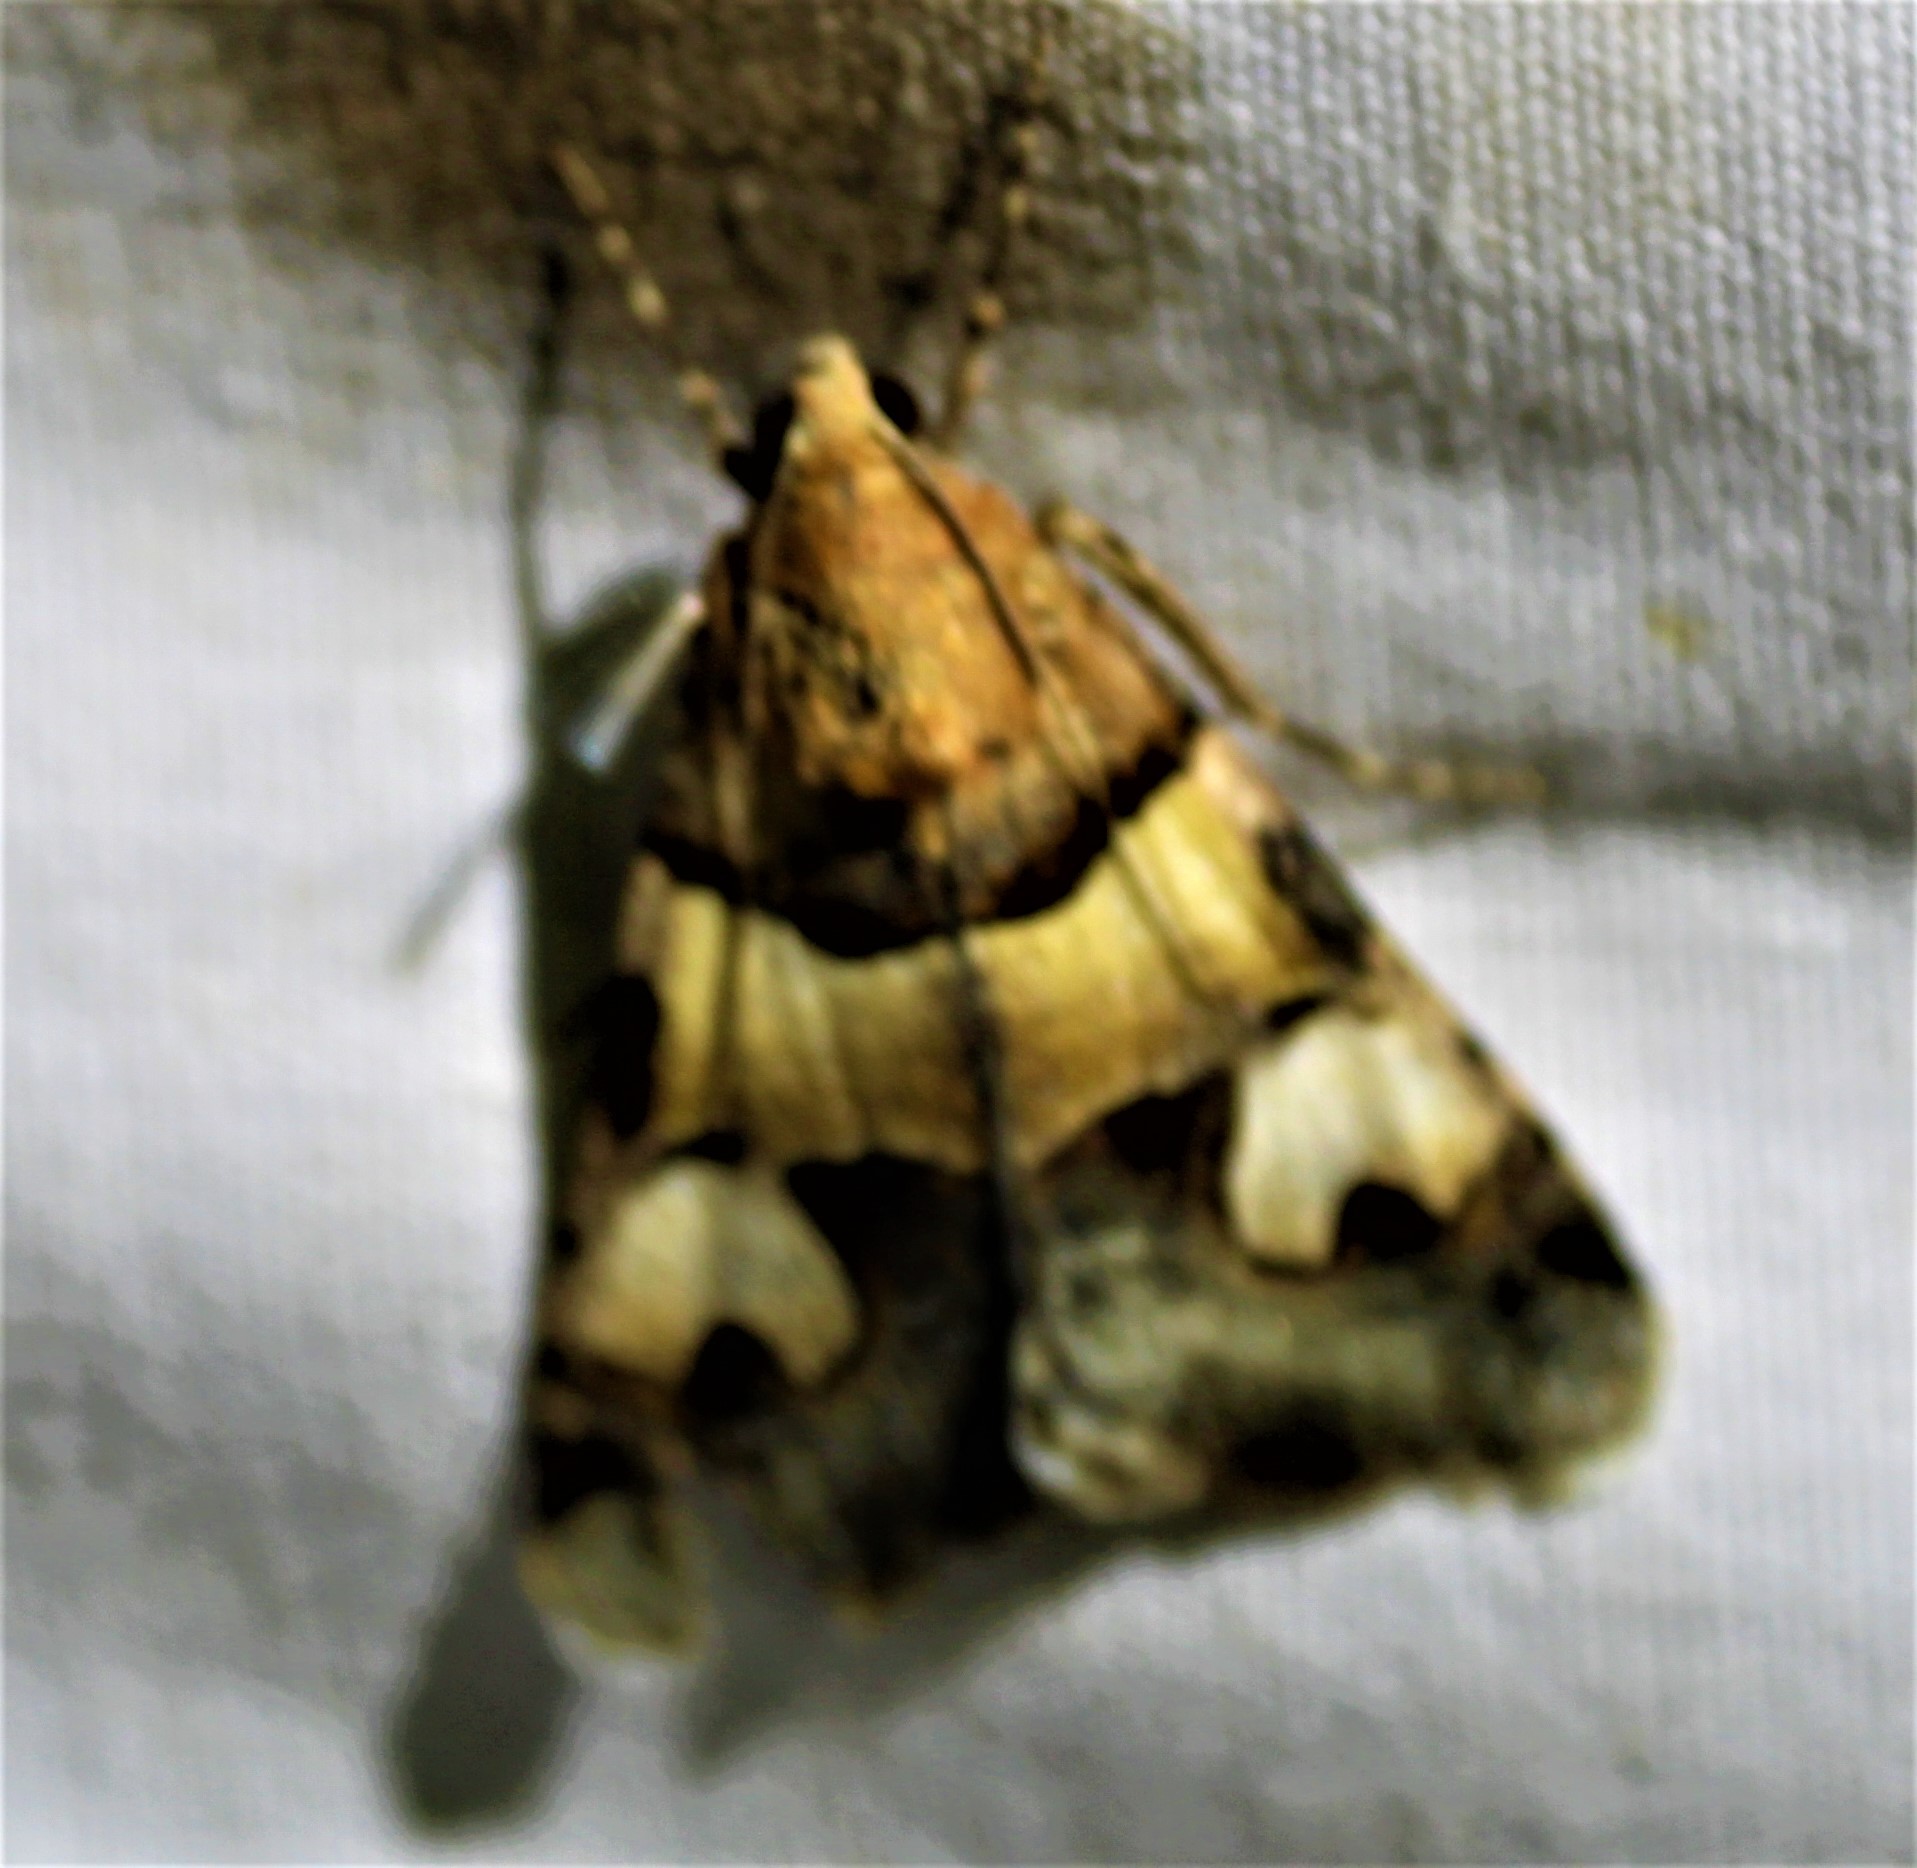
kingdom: Animalia
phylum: Arthropoda
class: Insecta
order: Lepidoptera
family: Erebidae
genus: Drasteria
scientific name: Drasteria pallescens
